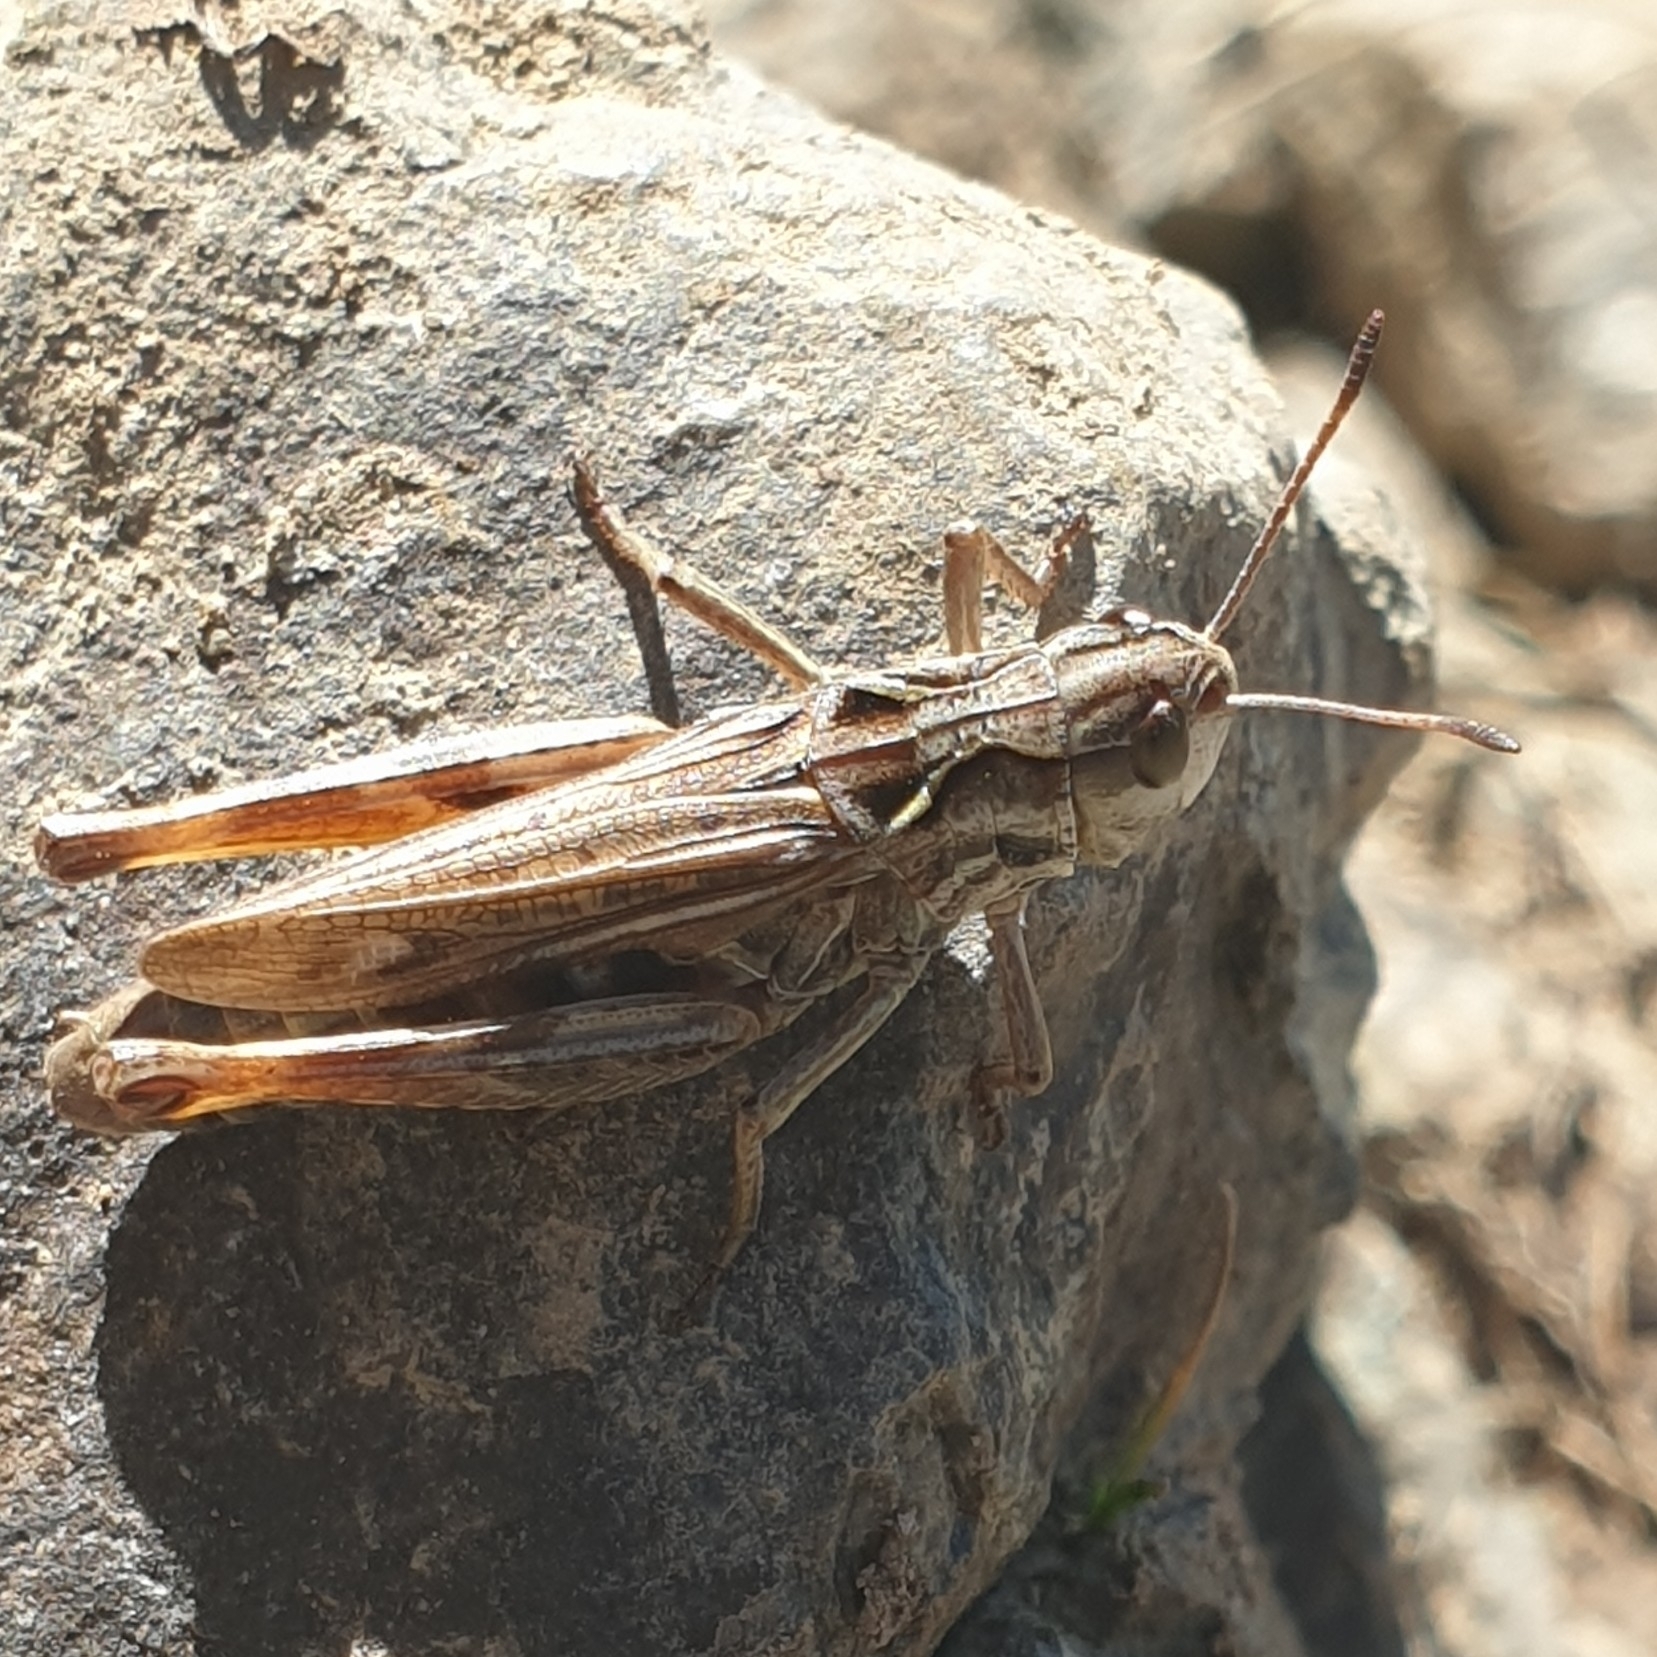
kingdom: Animalia
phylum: Arthropoda
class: Insecta
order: Orthoptera
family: Acrididae
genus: Gomphocerus
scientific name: Gomphocerus sibiricus
